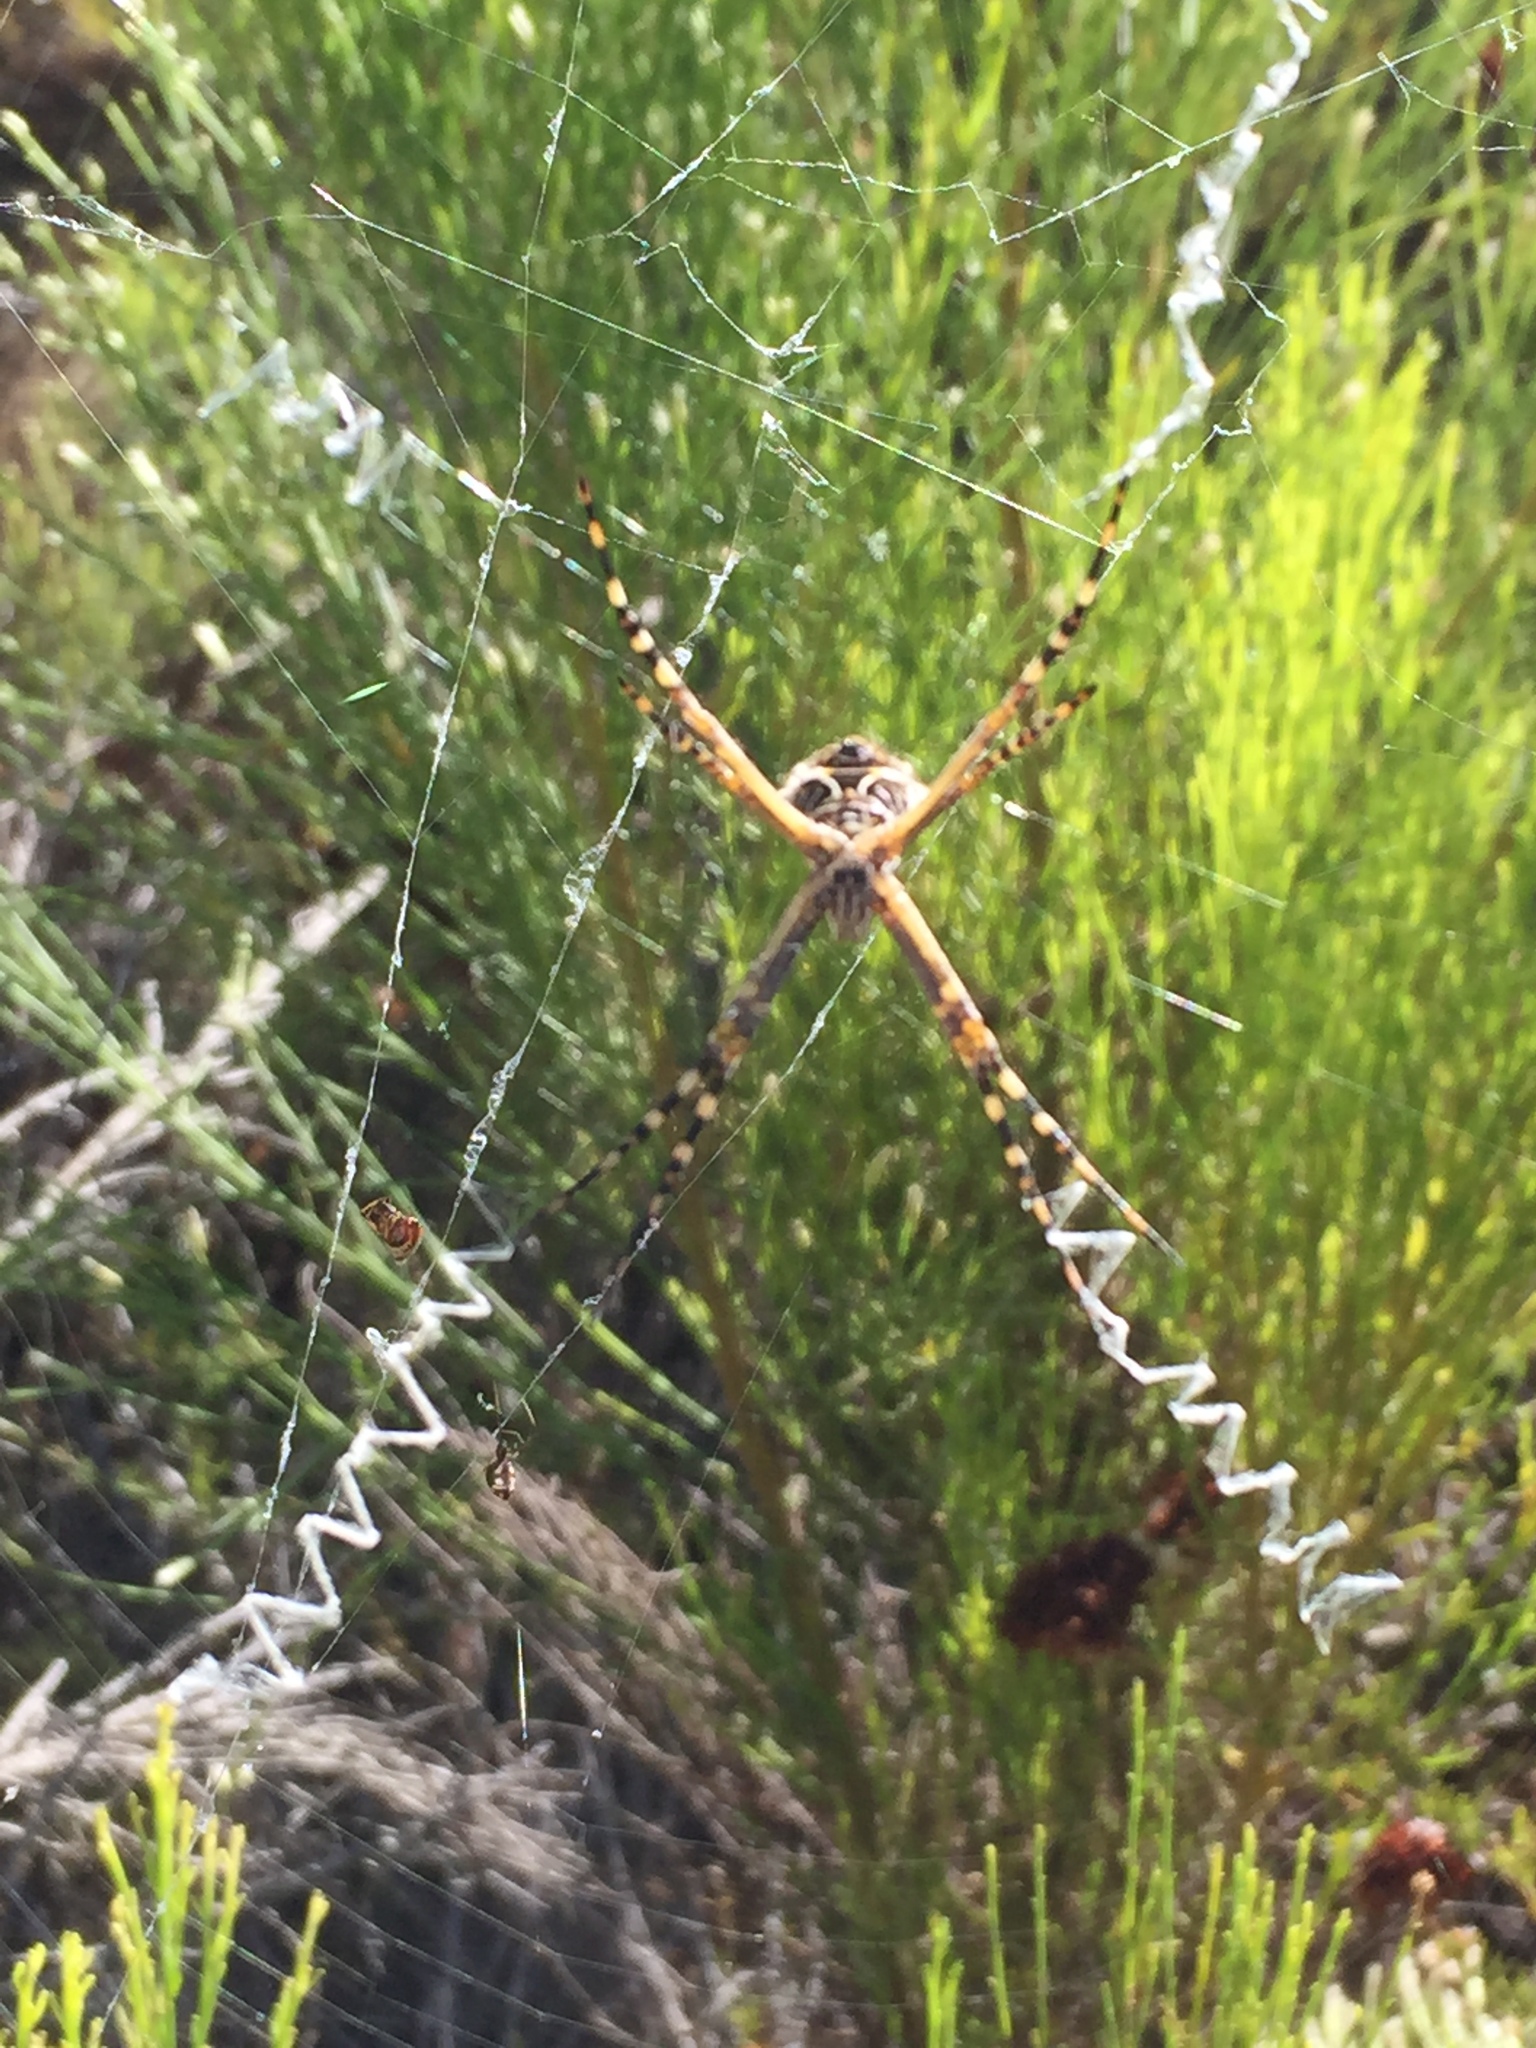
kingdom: Animalia
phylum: Arthropoda
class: Arachnida
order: Araneae
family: Araneidae
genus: Argiope
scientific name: Argiope argentata
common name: Orb weavers
